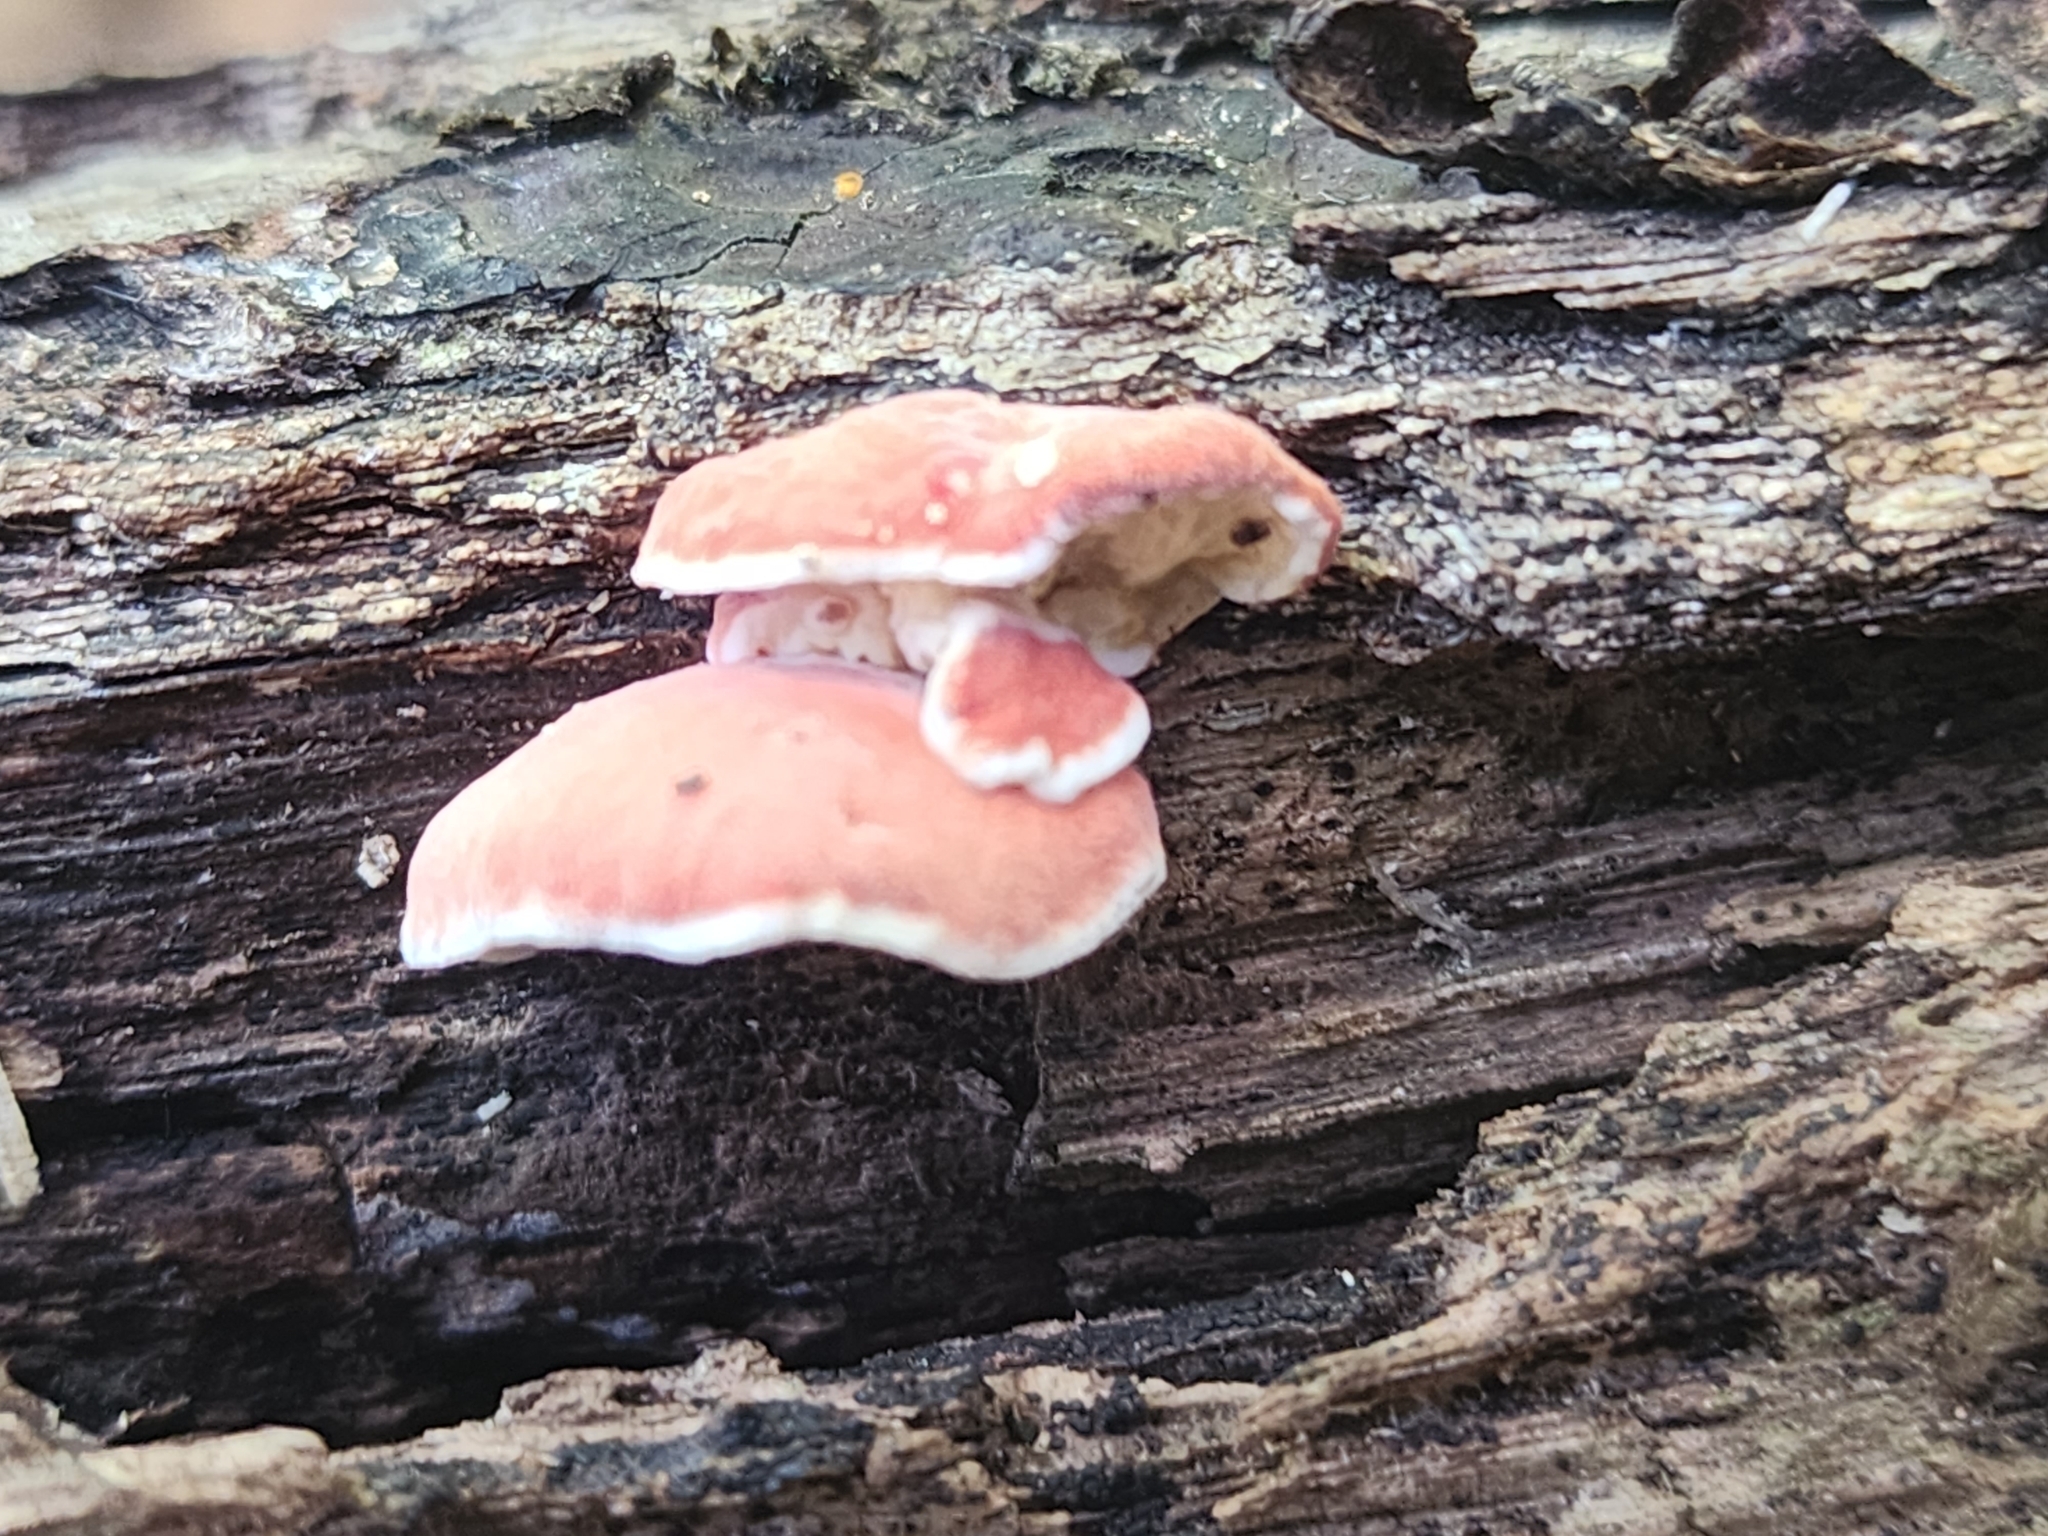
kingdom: Fungi
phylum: Basidiomycota
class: Agaricomycetes
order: Polyporales
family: Irpicaceae
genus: Byssomerulius
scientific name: Byssomerulius incarnatus
